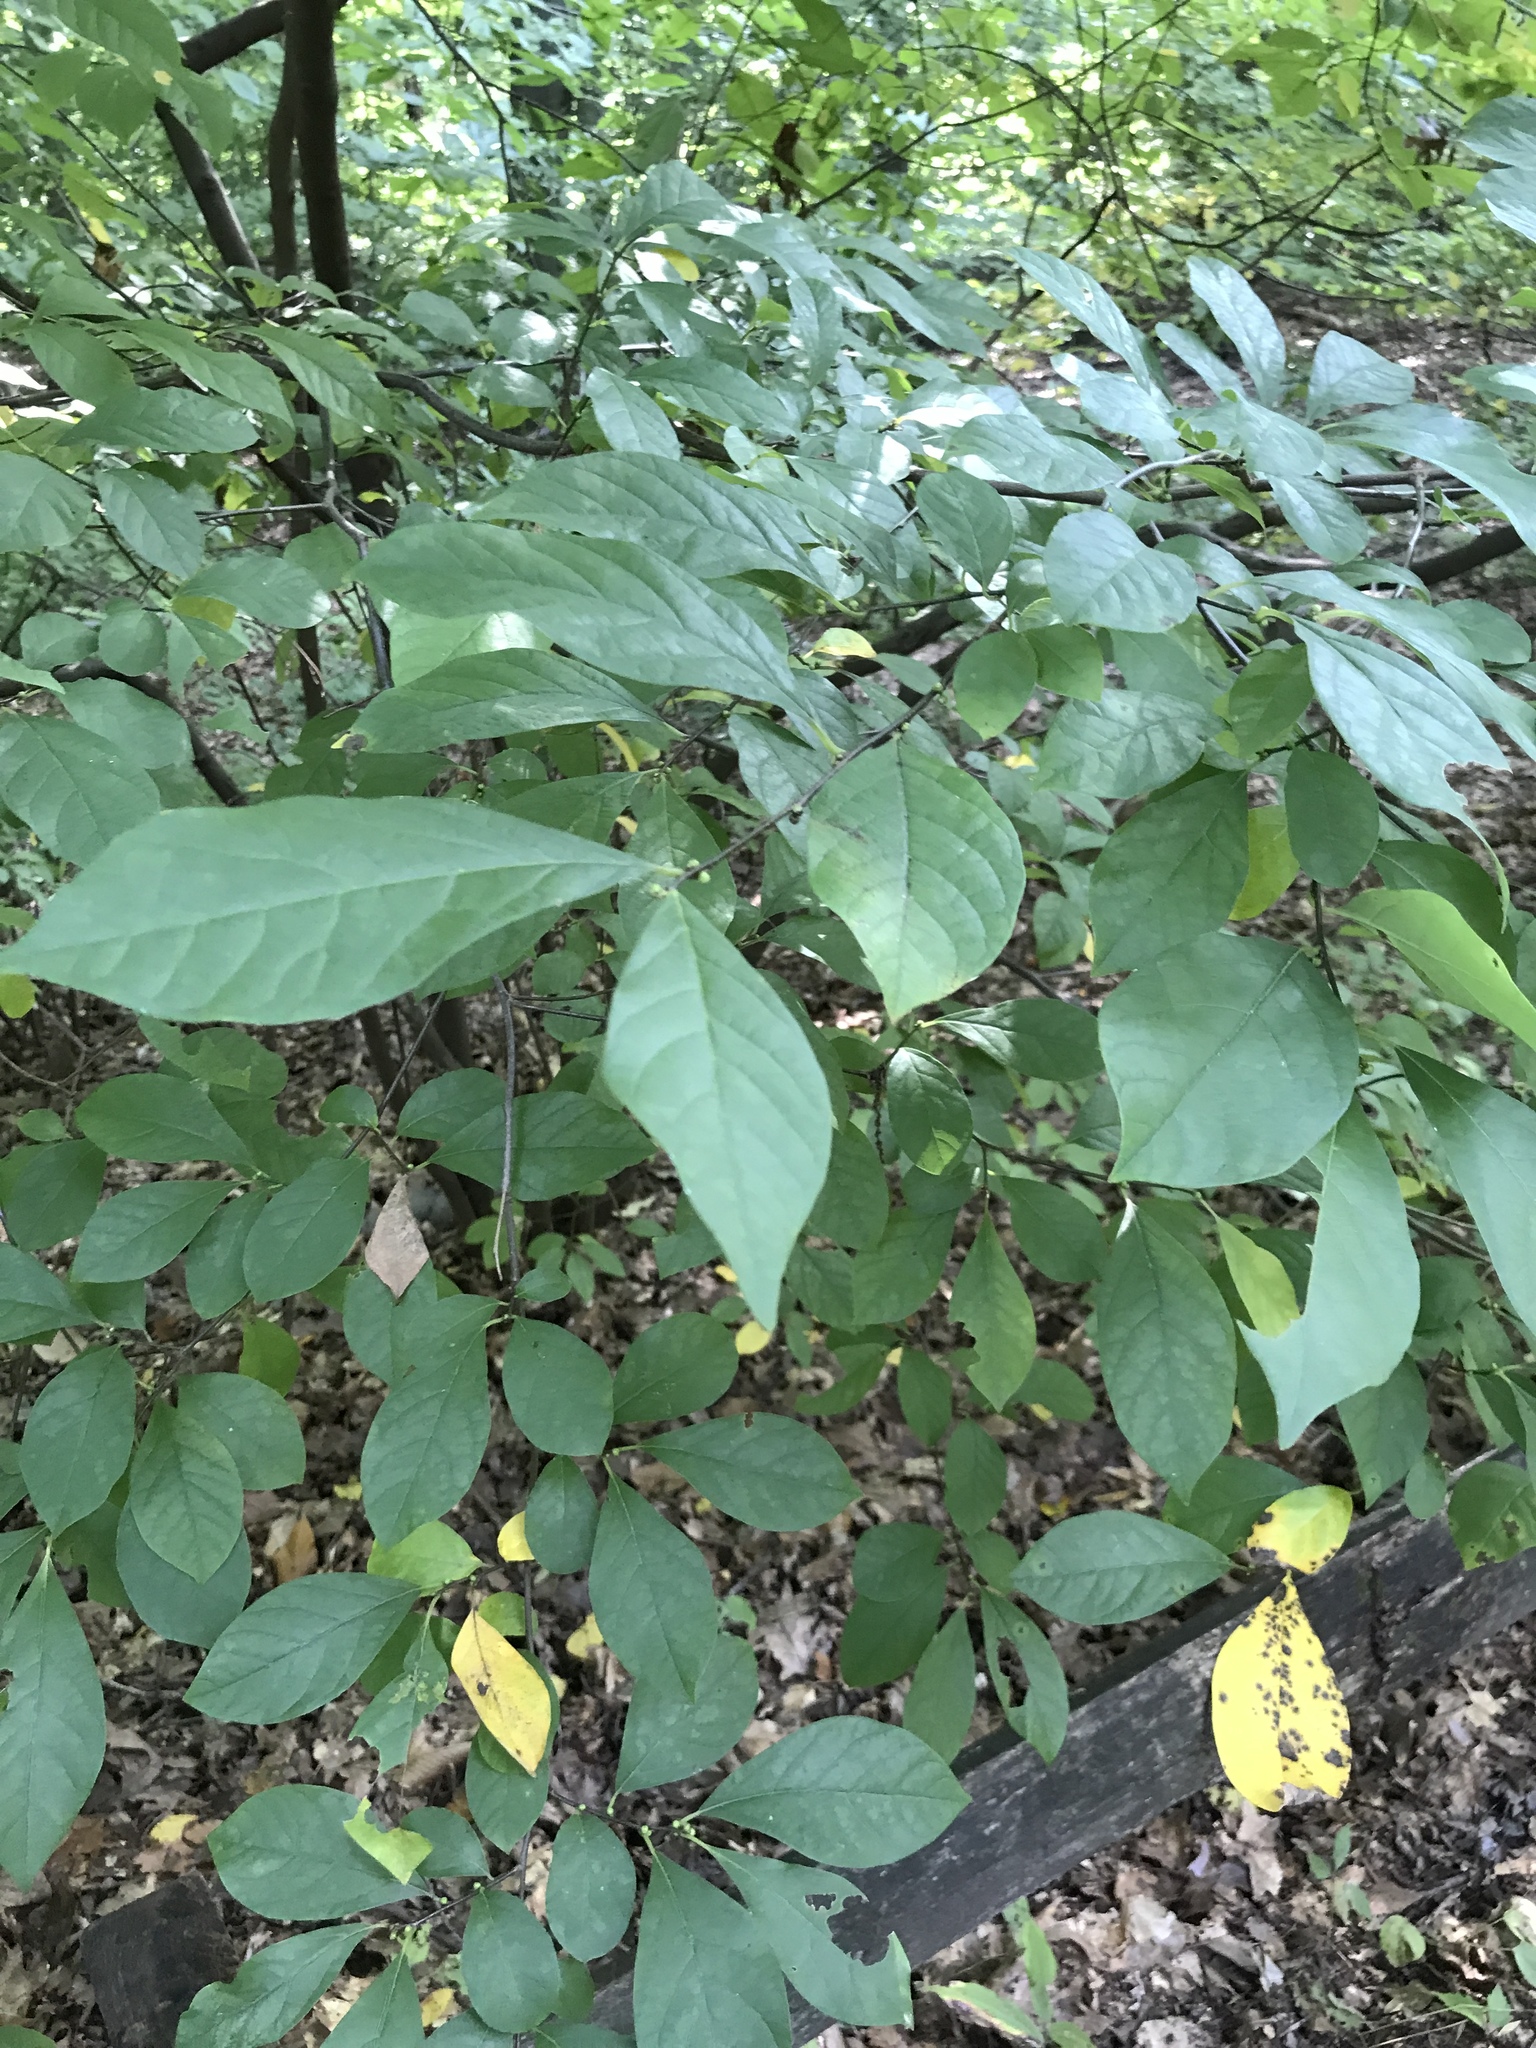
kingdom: Plantae
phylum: Tracheophyta
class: Magnoliopsida
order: Laurales
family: Lauraceae
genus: Lindera
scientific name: Lindera benzoin
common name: Spicebush
